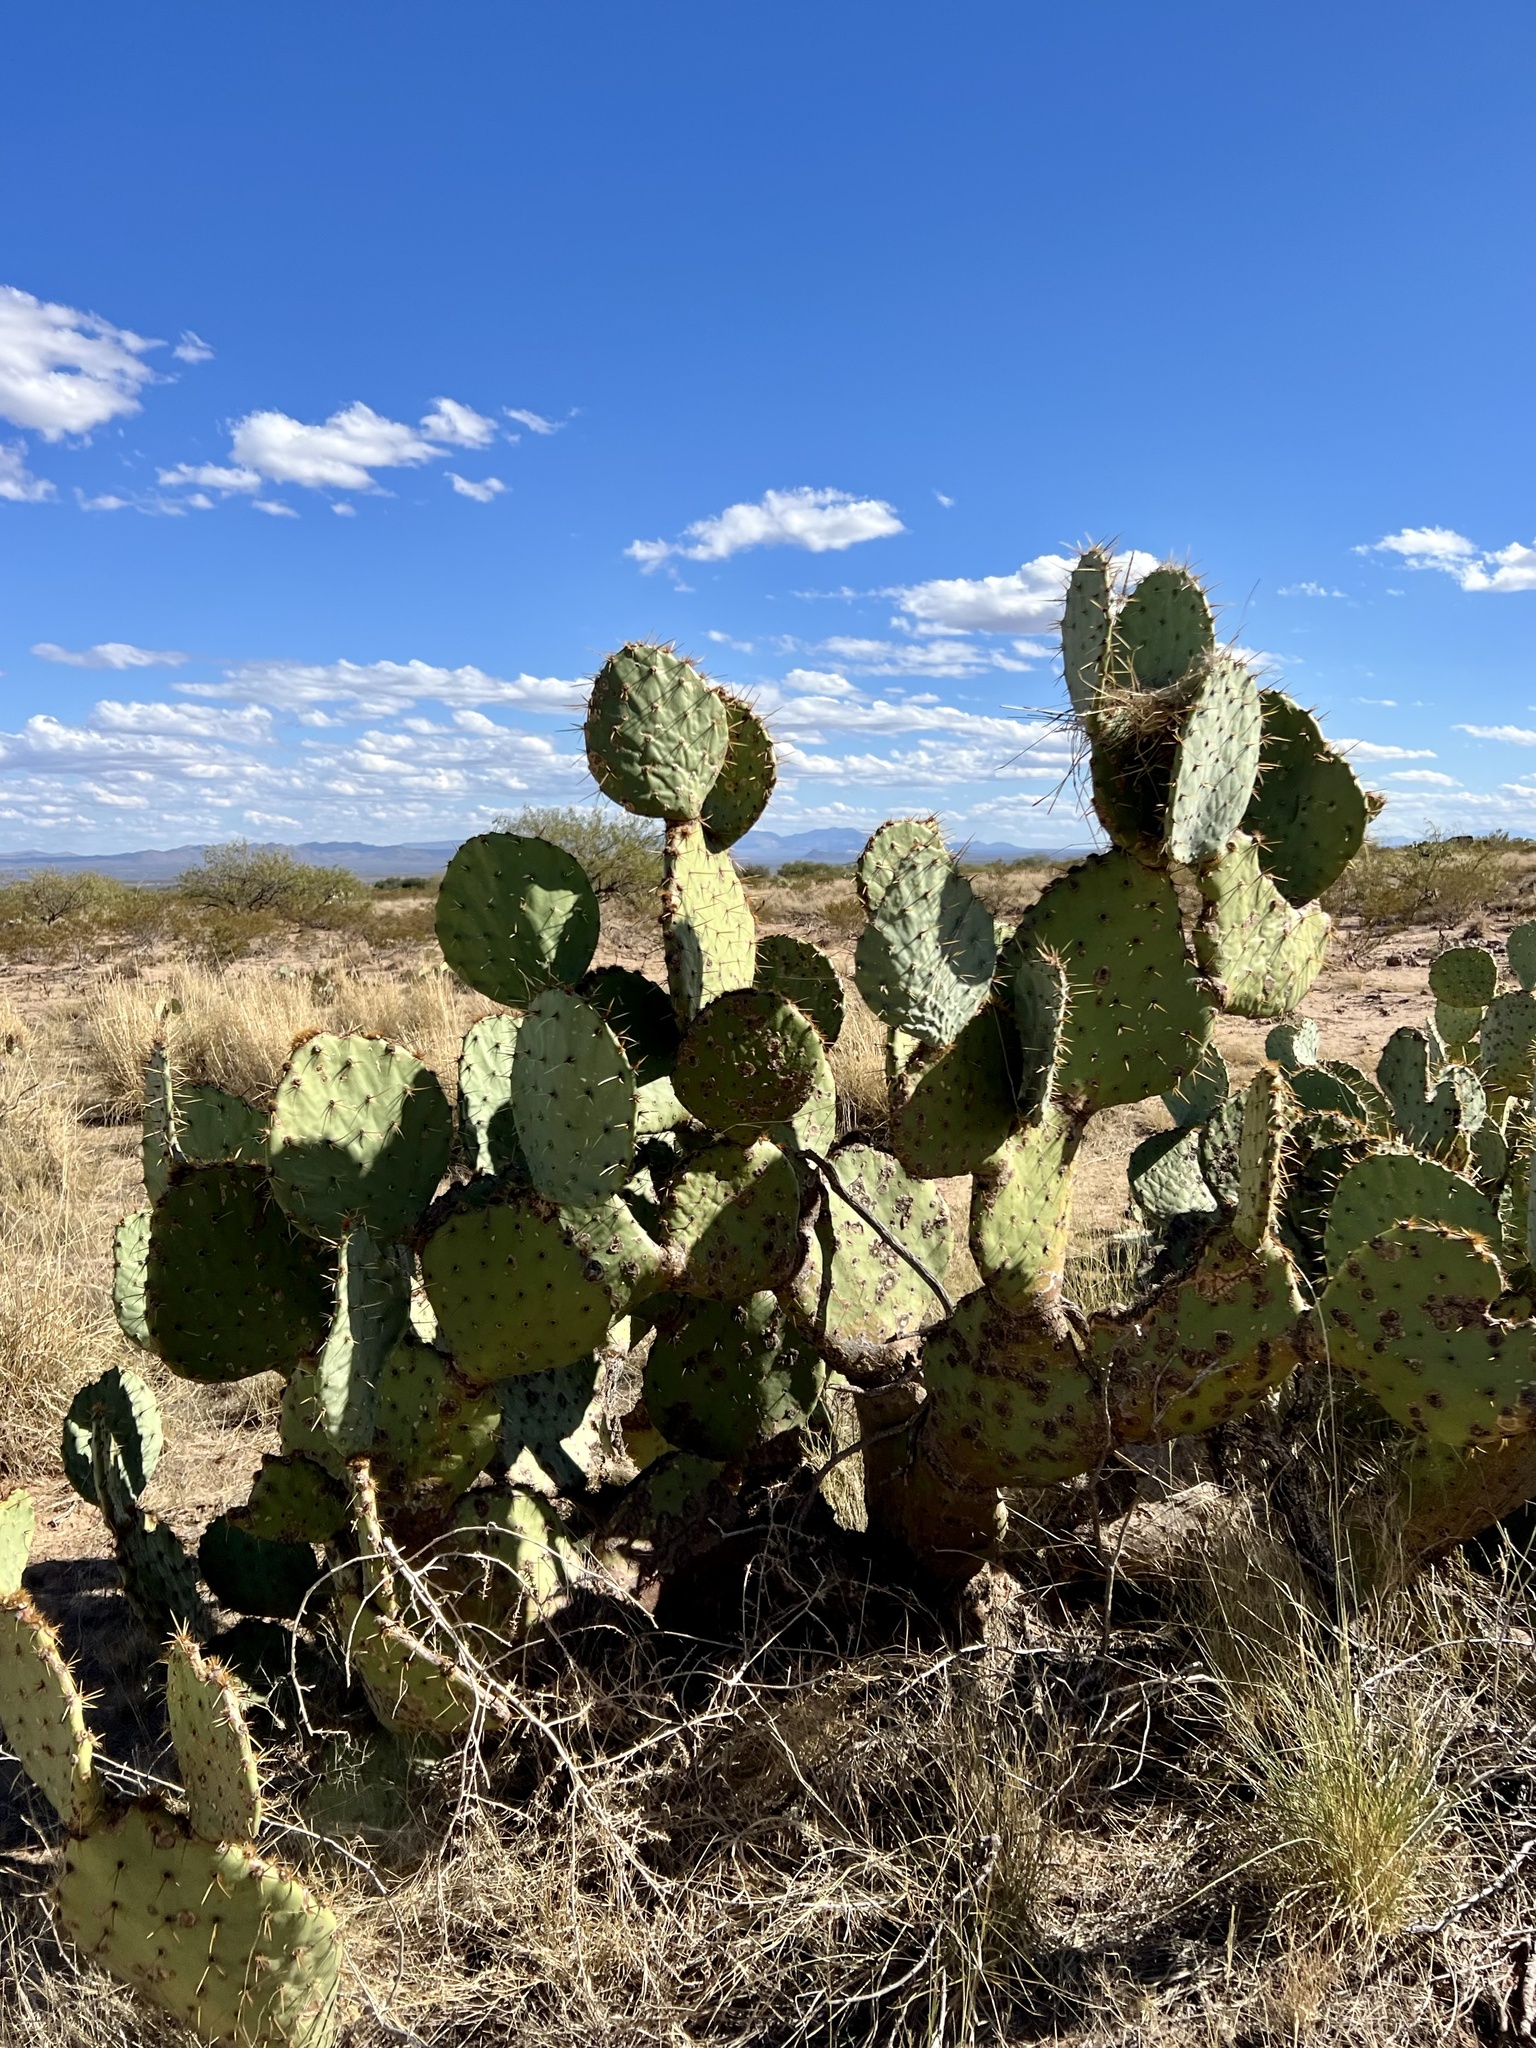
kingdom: Plantae
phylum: Tracheophyta
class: Magnoliopsida
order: Caryophyllales
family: Cactaceae
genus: Opuntia
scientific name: Opuntia engelmannii
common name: Cactus-apple
